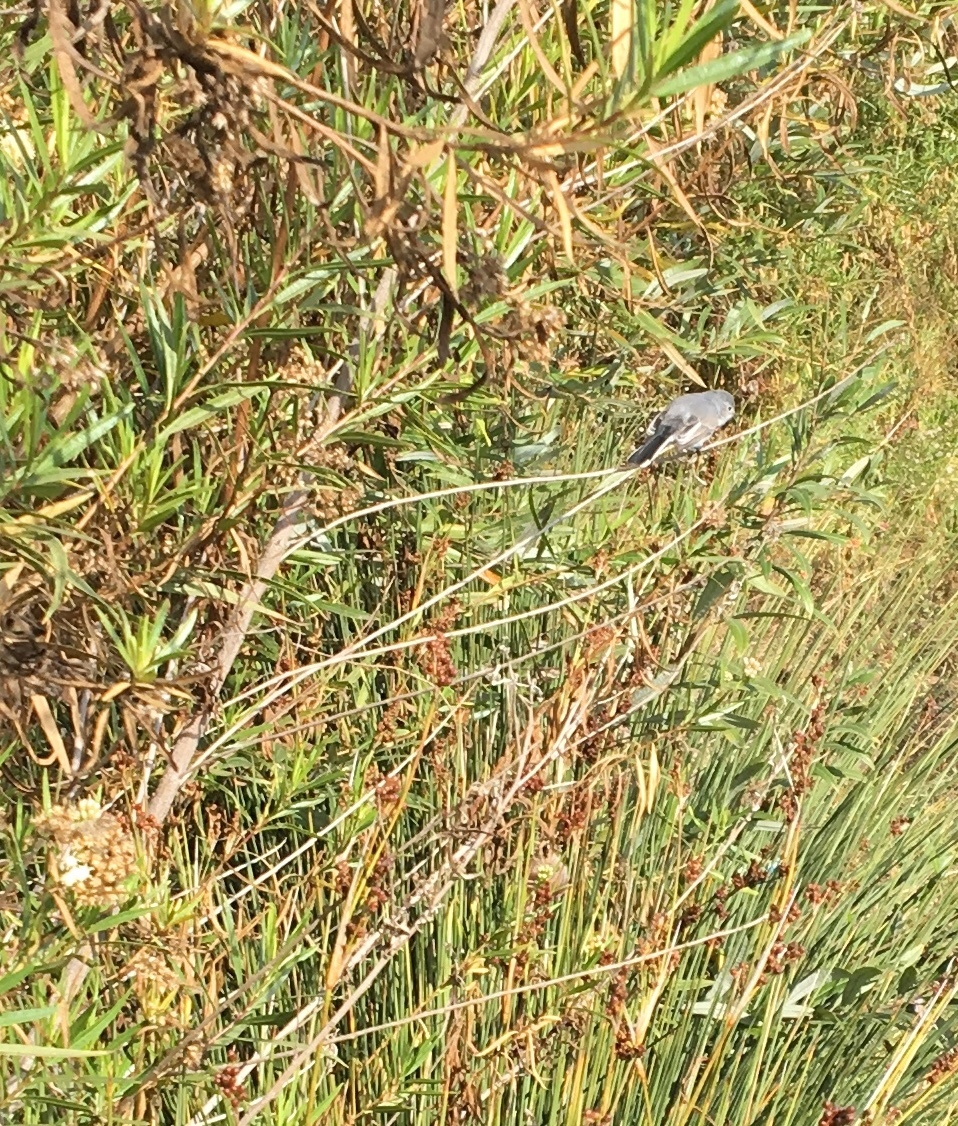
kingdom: Animalia
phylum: Chordata
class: Aves
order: Passeriformes
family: Polioptilidae
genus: Polioptila
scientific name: Polioptila caerulea
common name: Blue-gray gnatcatcher
